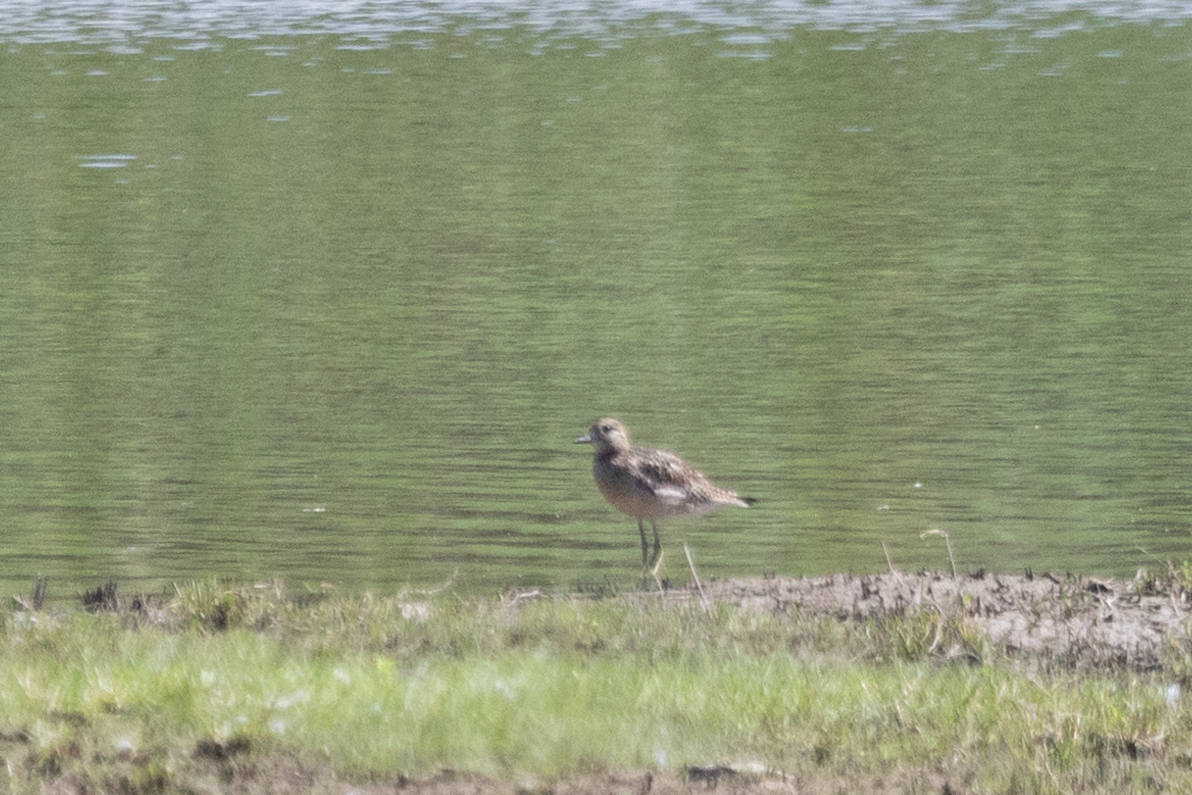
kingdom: Animalia
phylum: Chordata
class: Aves
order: Charadriiformes
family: Charadriidae
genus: Pluvialis
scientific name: Pluvialis fulva
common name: Pacific golden plover
